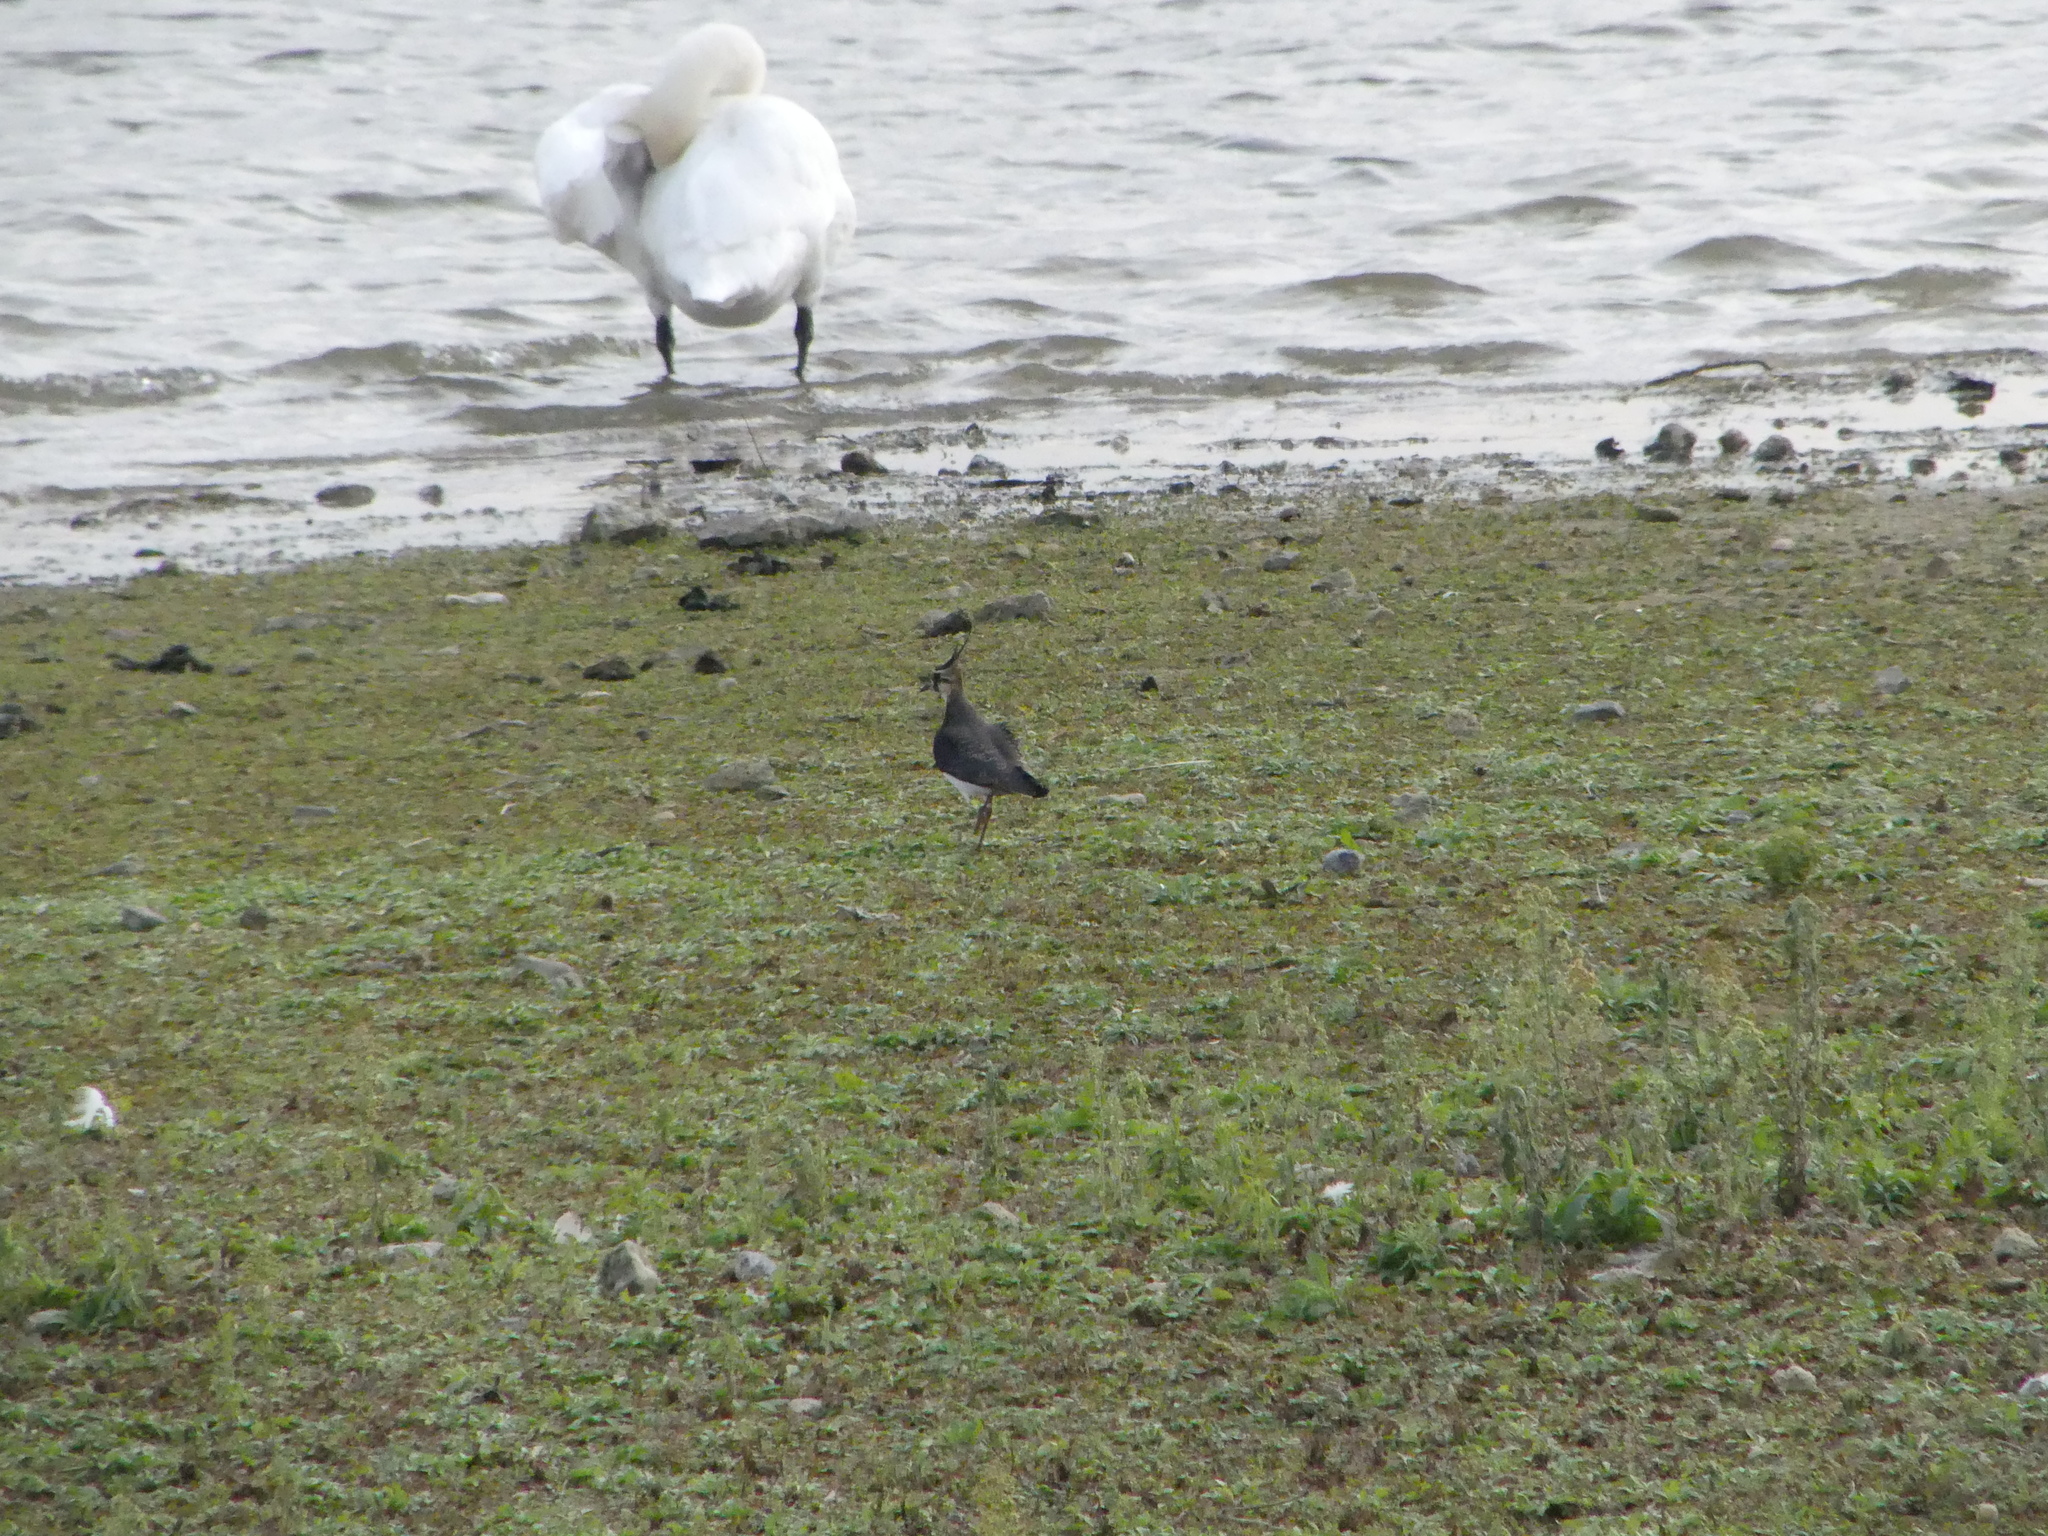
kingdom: Animalia
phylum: Chordata
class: Aves
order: Charadriiformes
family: Charadriidae
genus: Vanellus
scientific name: Vanellus vanellus
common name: Northern lapwing
